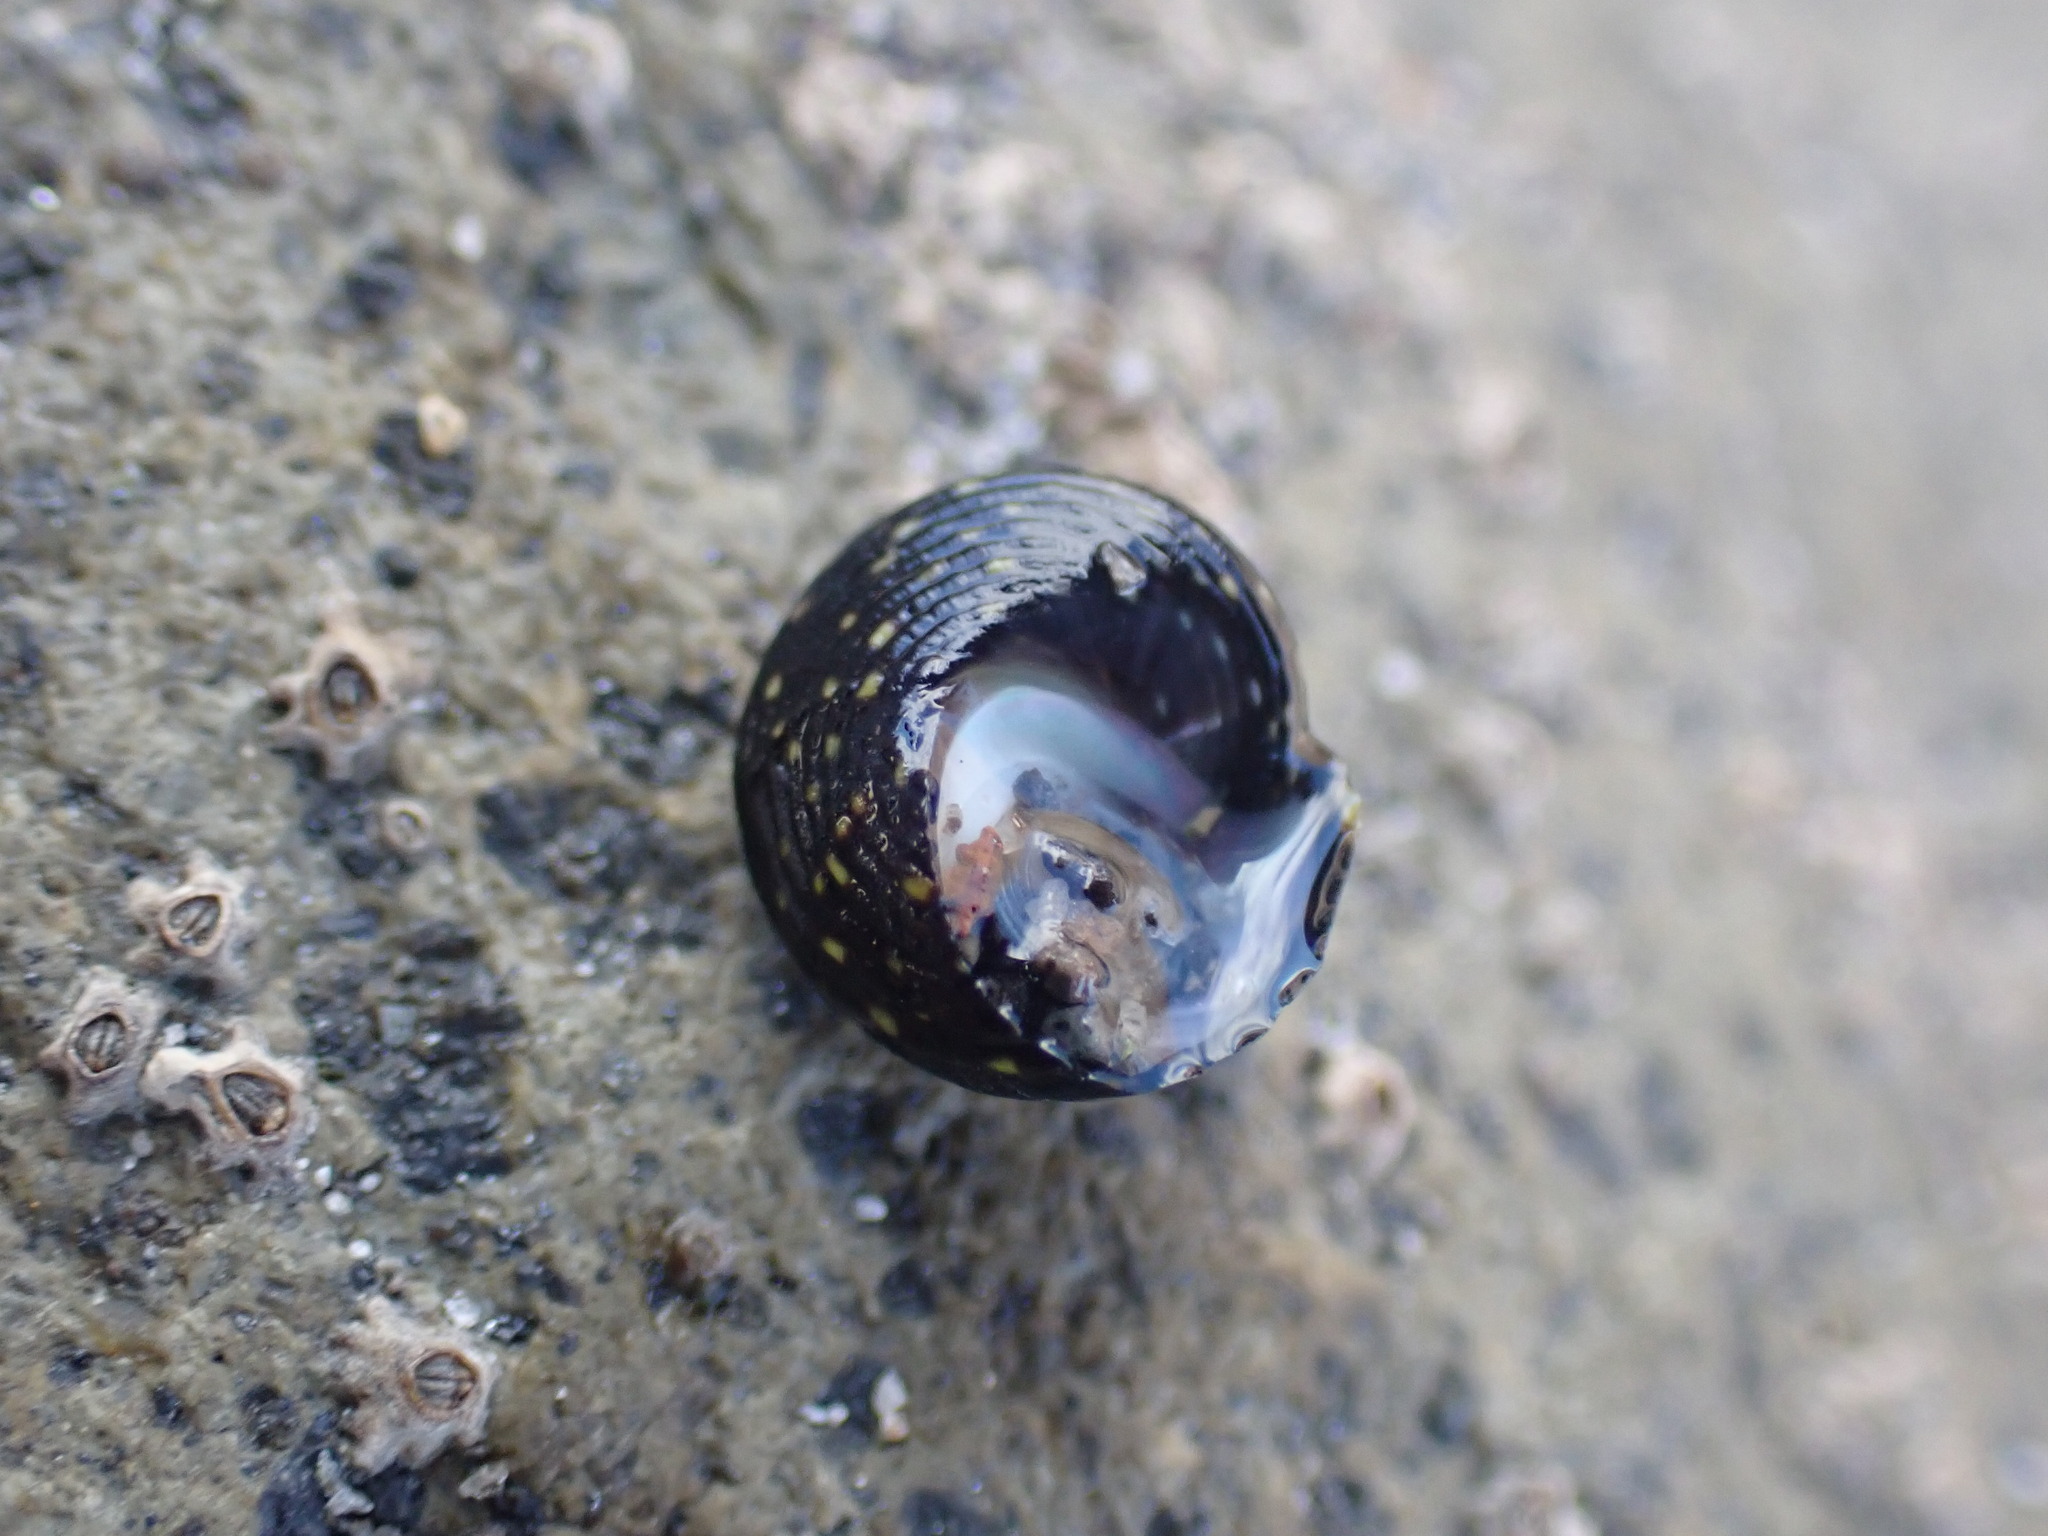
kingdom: Animalia
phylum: Mollusca
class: Gastropoda
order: Trochida
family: Trochidae
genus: Diloma
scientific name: Diloma aridum
